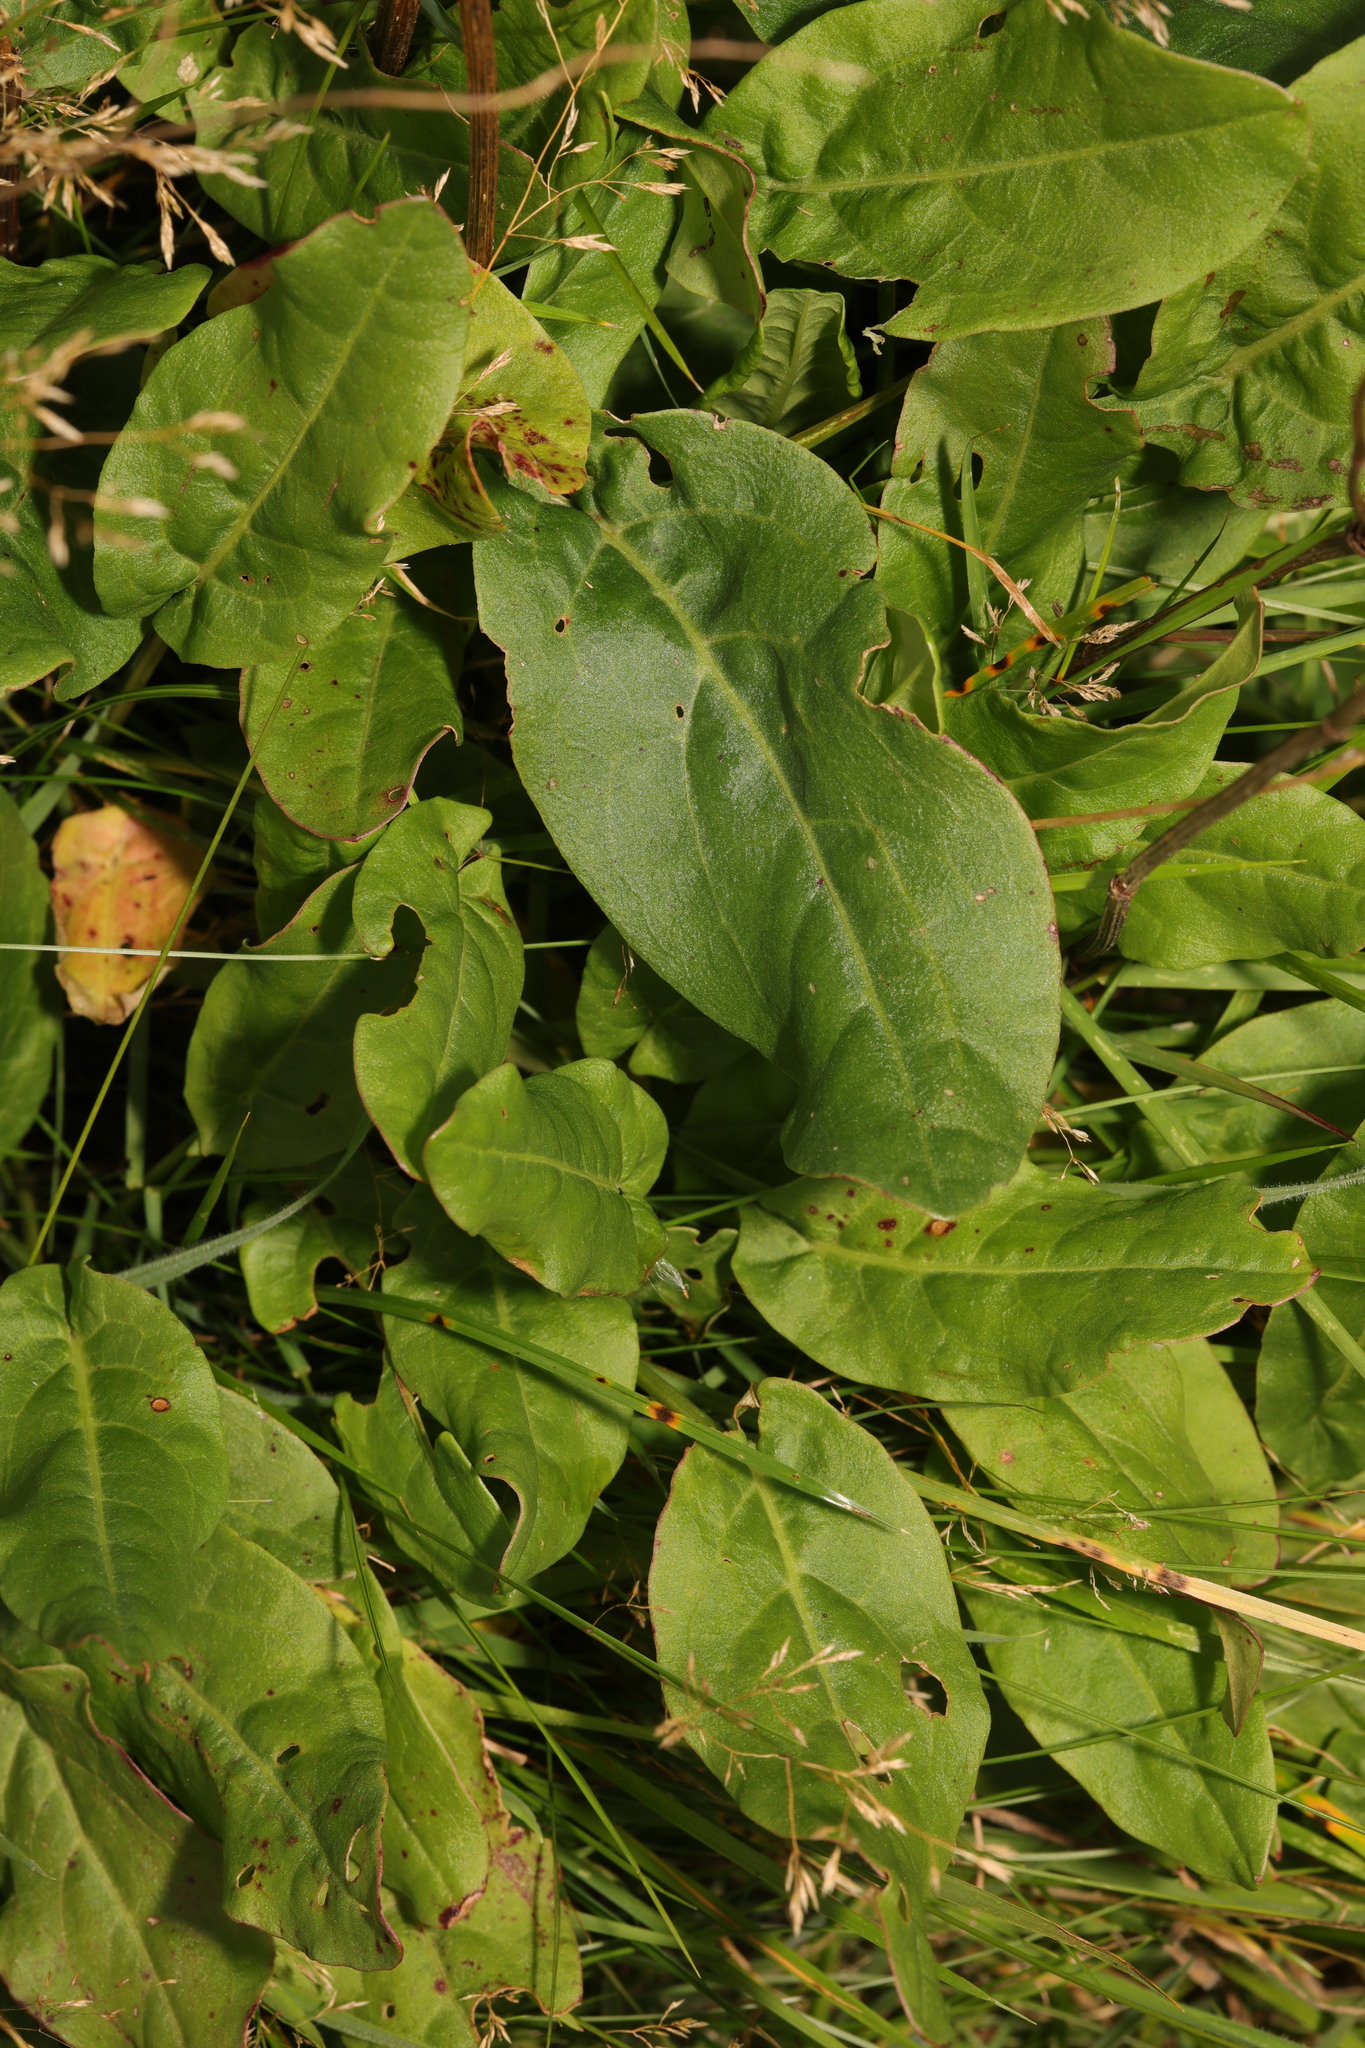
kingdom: Plantae
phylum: Tracheophyta
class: Magnoliopsida
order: Caryophyllales
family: Polygonaceae
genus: Rumex
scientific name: Rumex acetosa
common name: Garden sorrel
